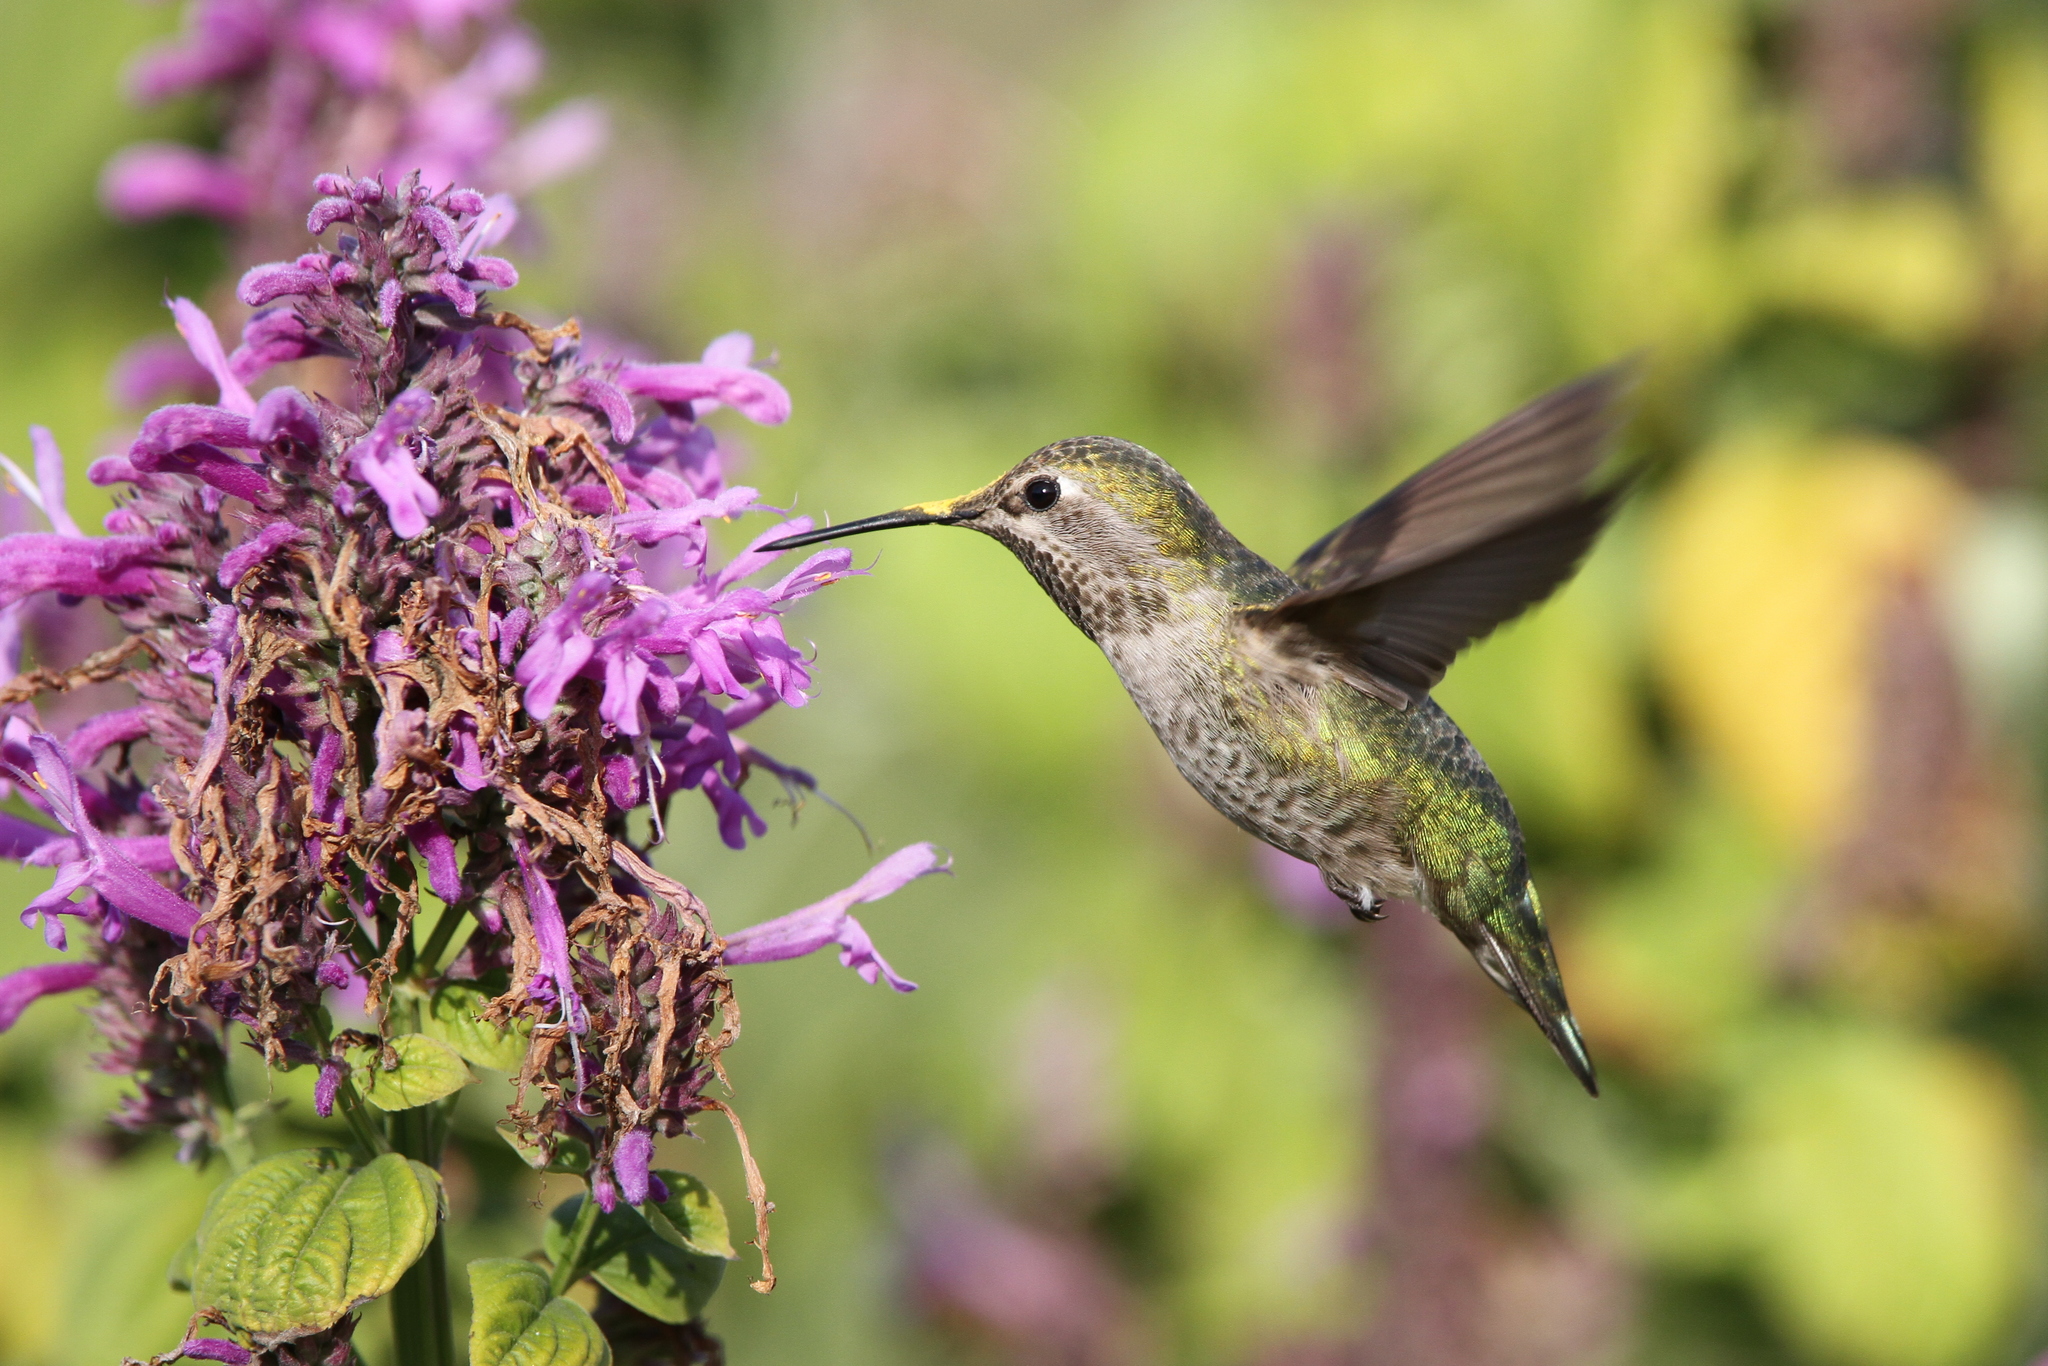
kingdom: Animalia
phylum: Chordata
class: Aves
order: Apodiformes
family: Trochilidae
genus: Calypte
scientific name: Calypte anna
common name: Anna's hummingbird
